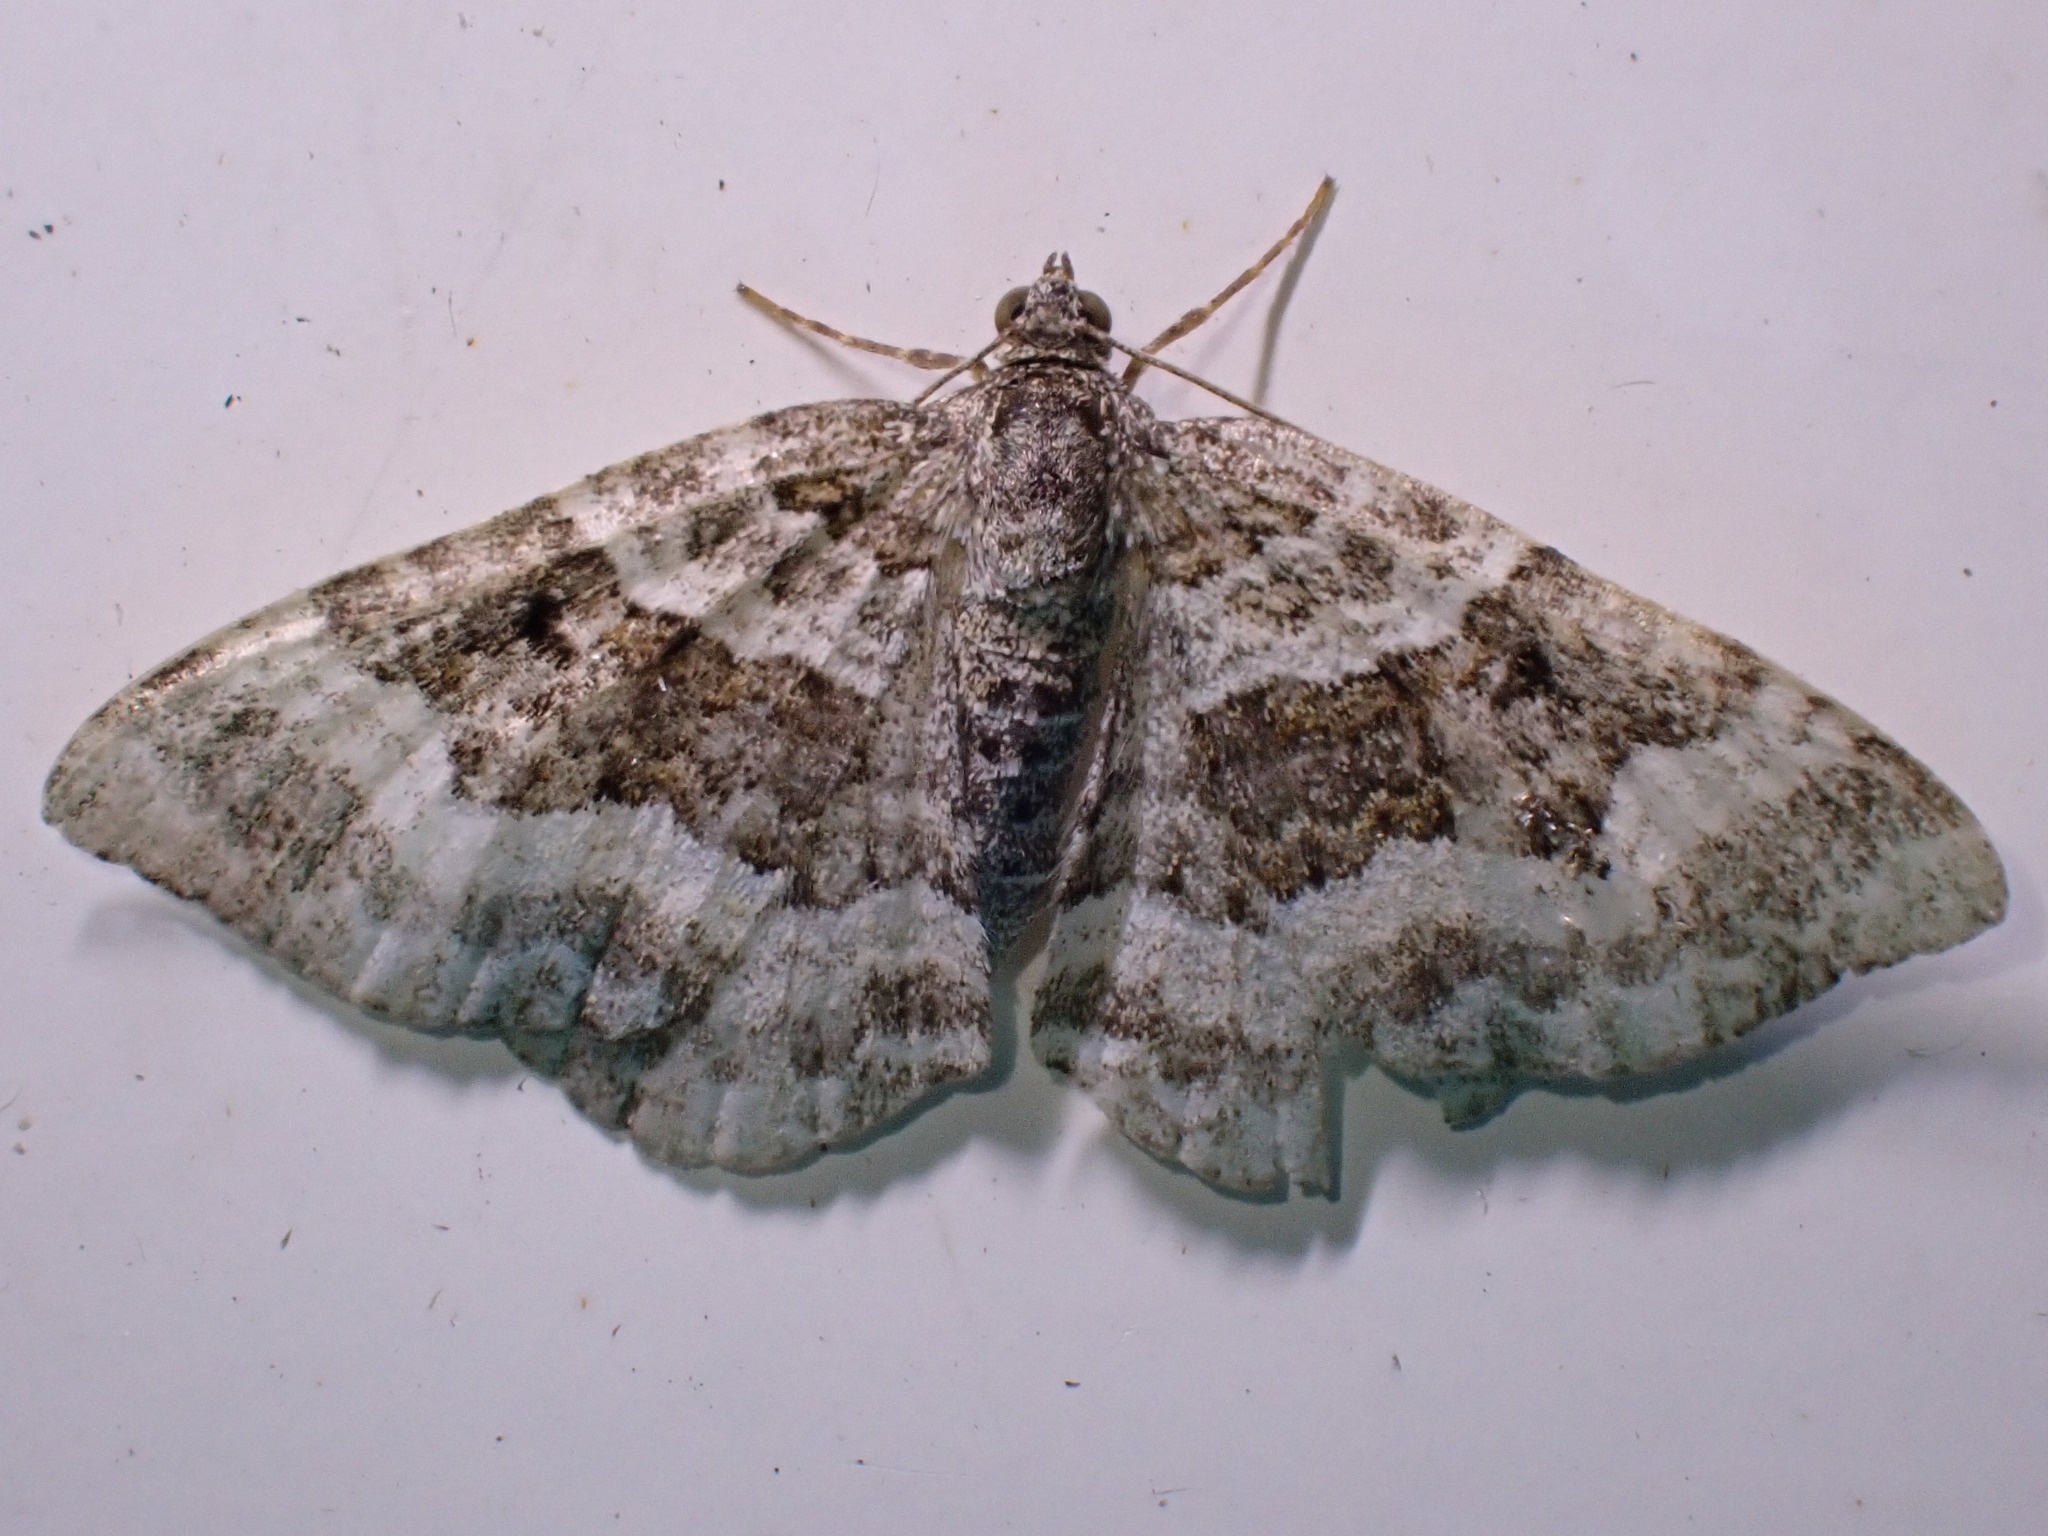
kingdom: Animalia
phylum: Arthropoda
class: Insecta
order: Lepidoptera
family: Geometridae
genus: Epirrhoe
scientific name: Epirrhoe alternata
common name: Common carpet
